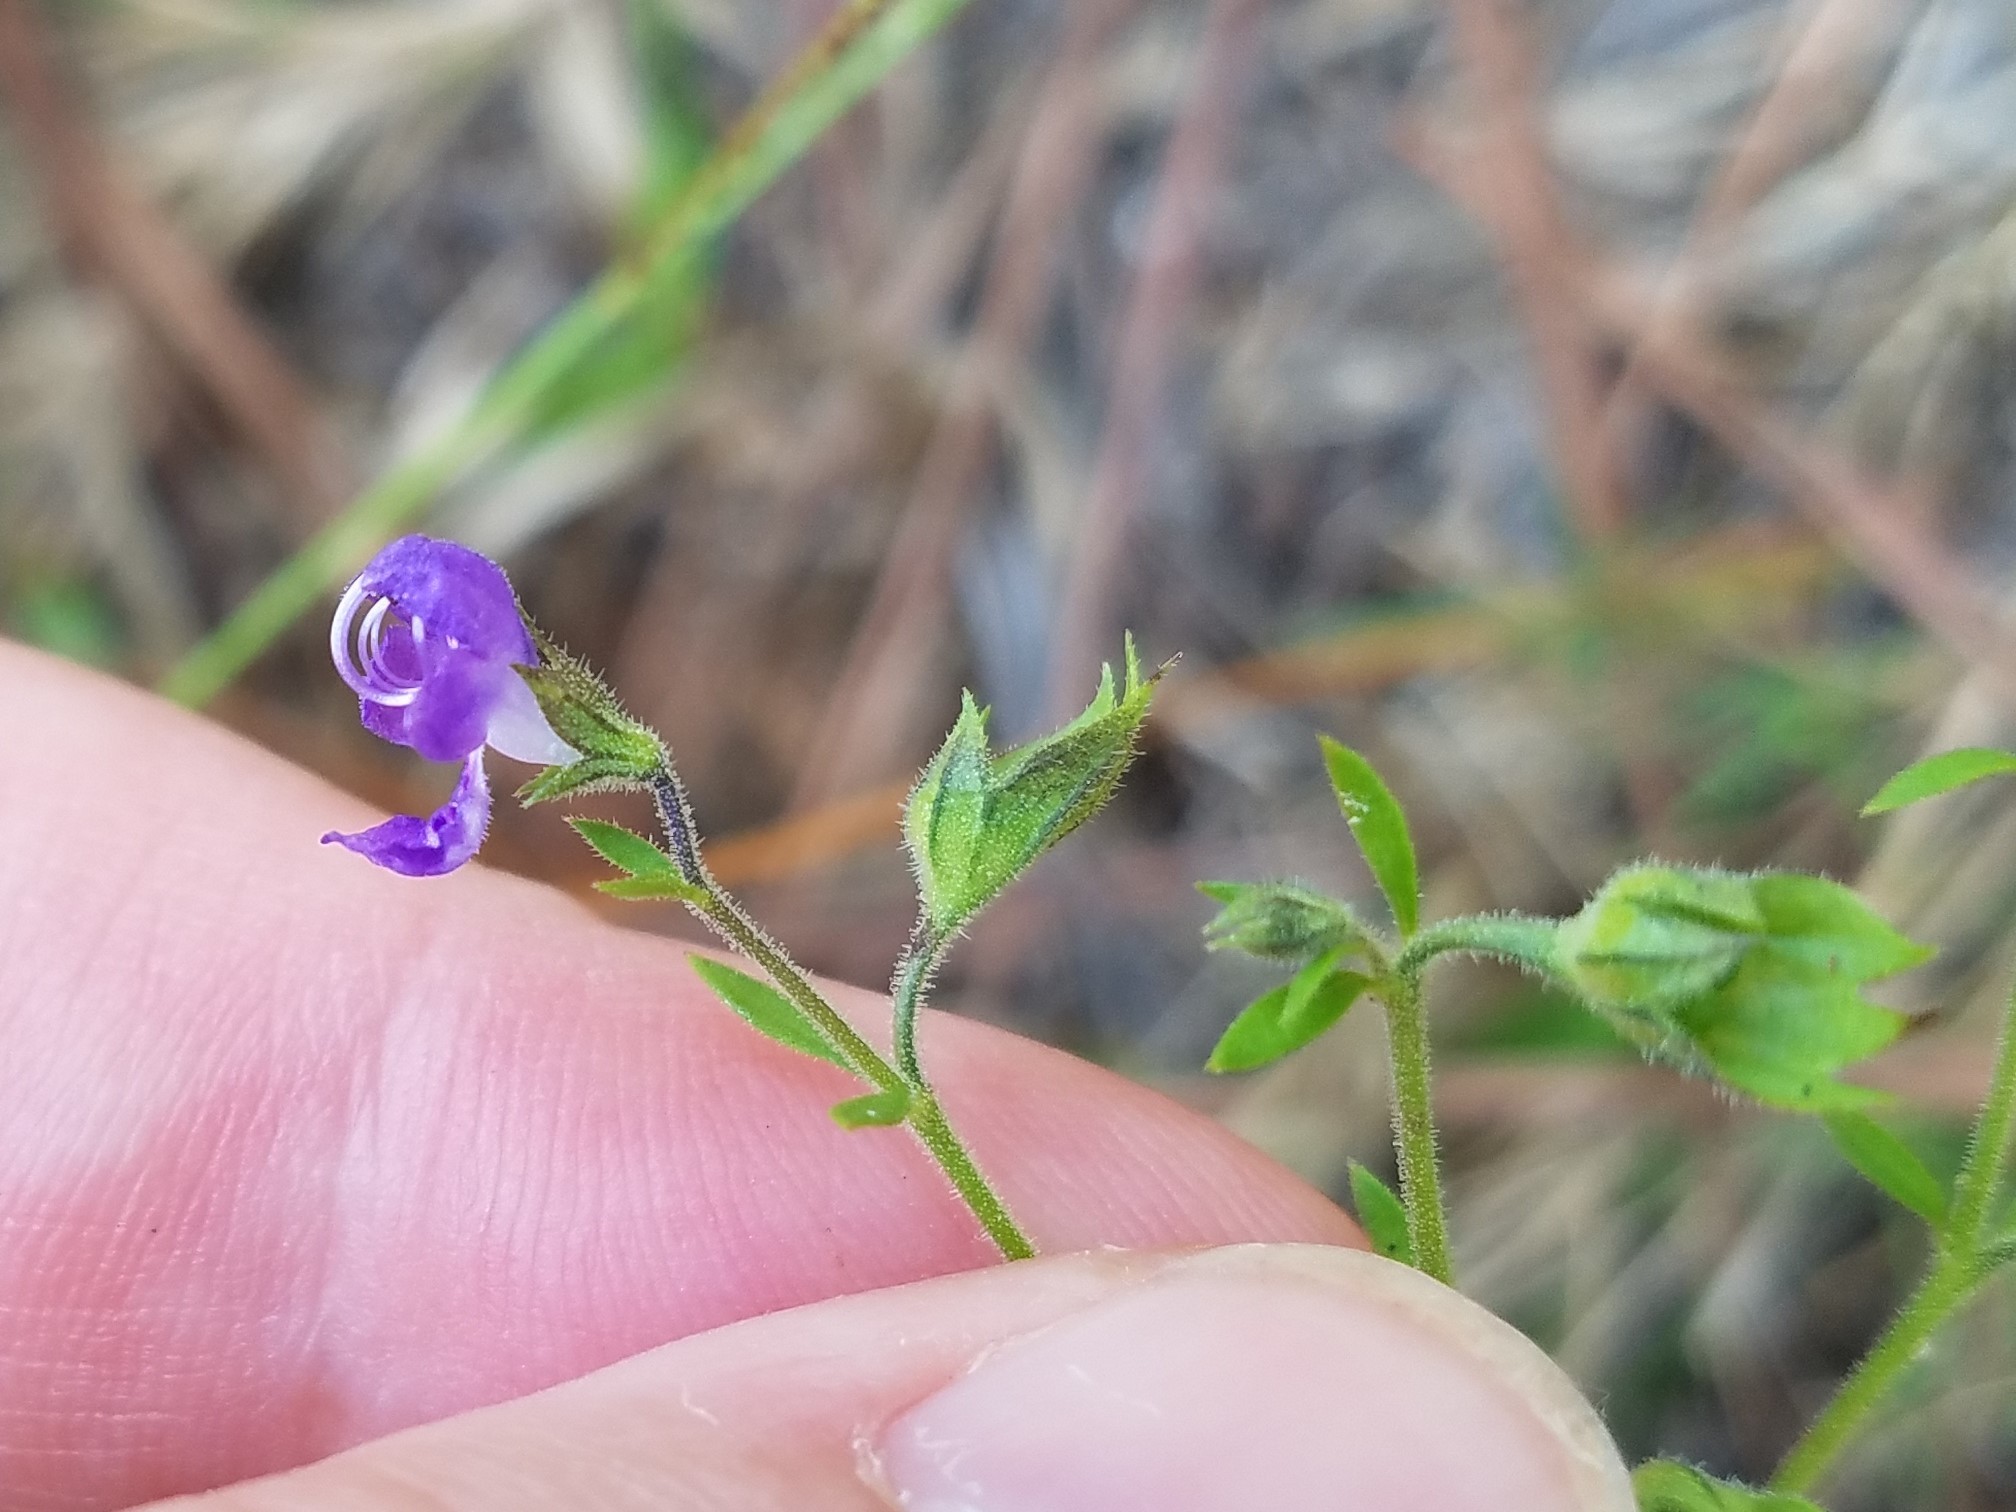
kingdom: Plantae
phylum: Tracheophyta
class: Magnoliopsida
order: Lamiales
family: Lamiaceae
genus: Trichostema
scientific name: Trichostema dichotomum
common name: Bastard pennyroyal
